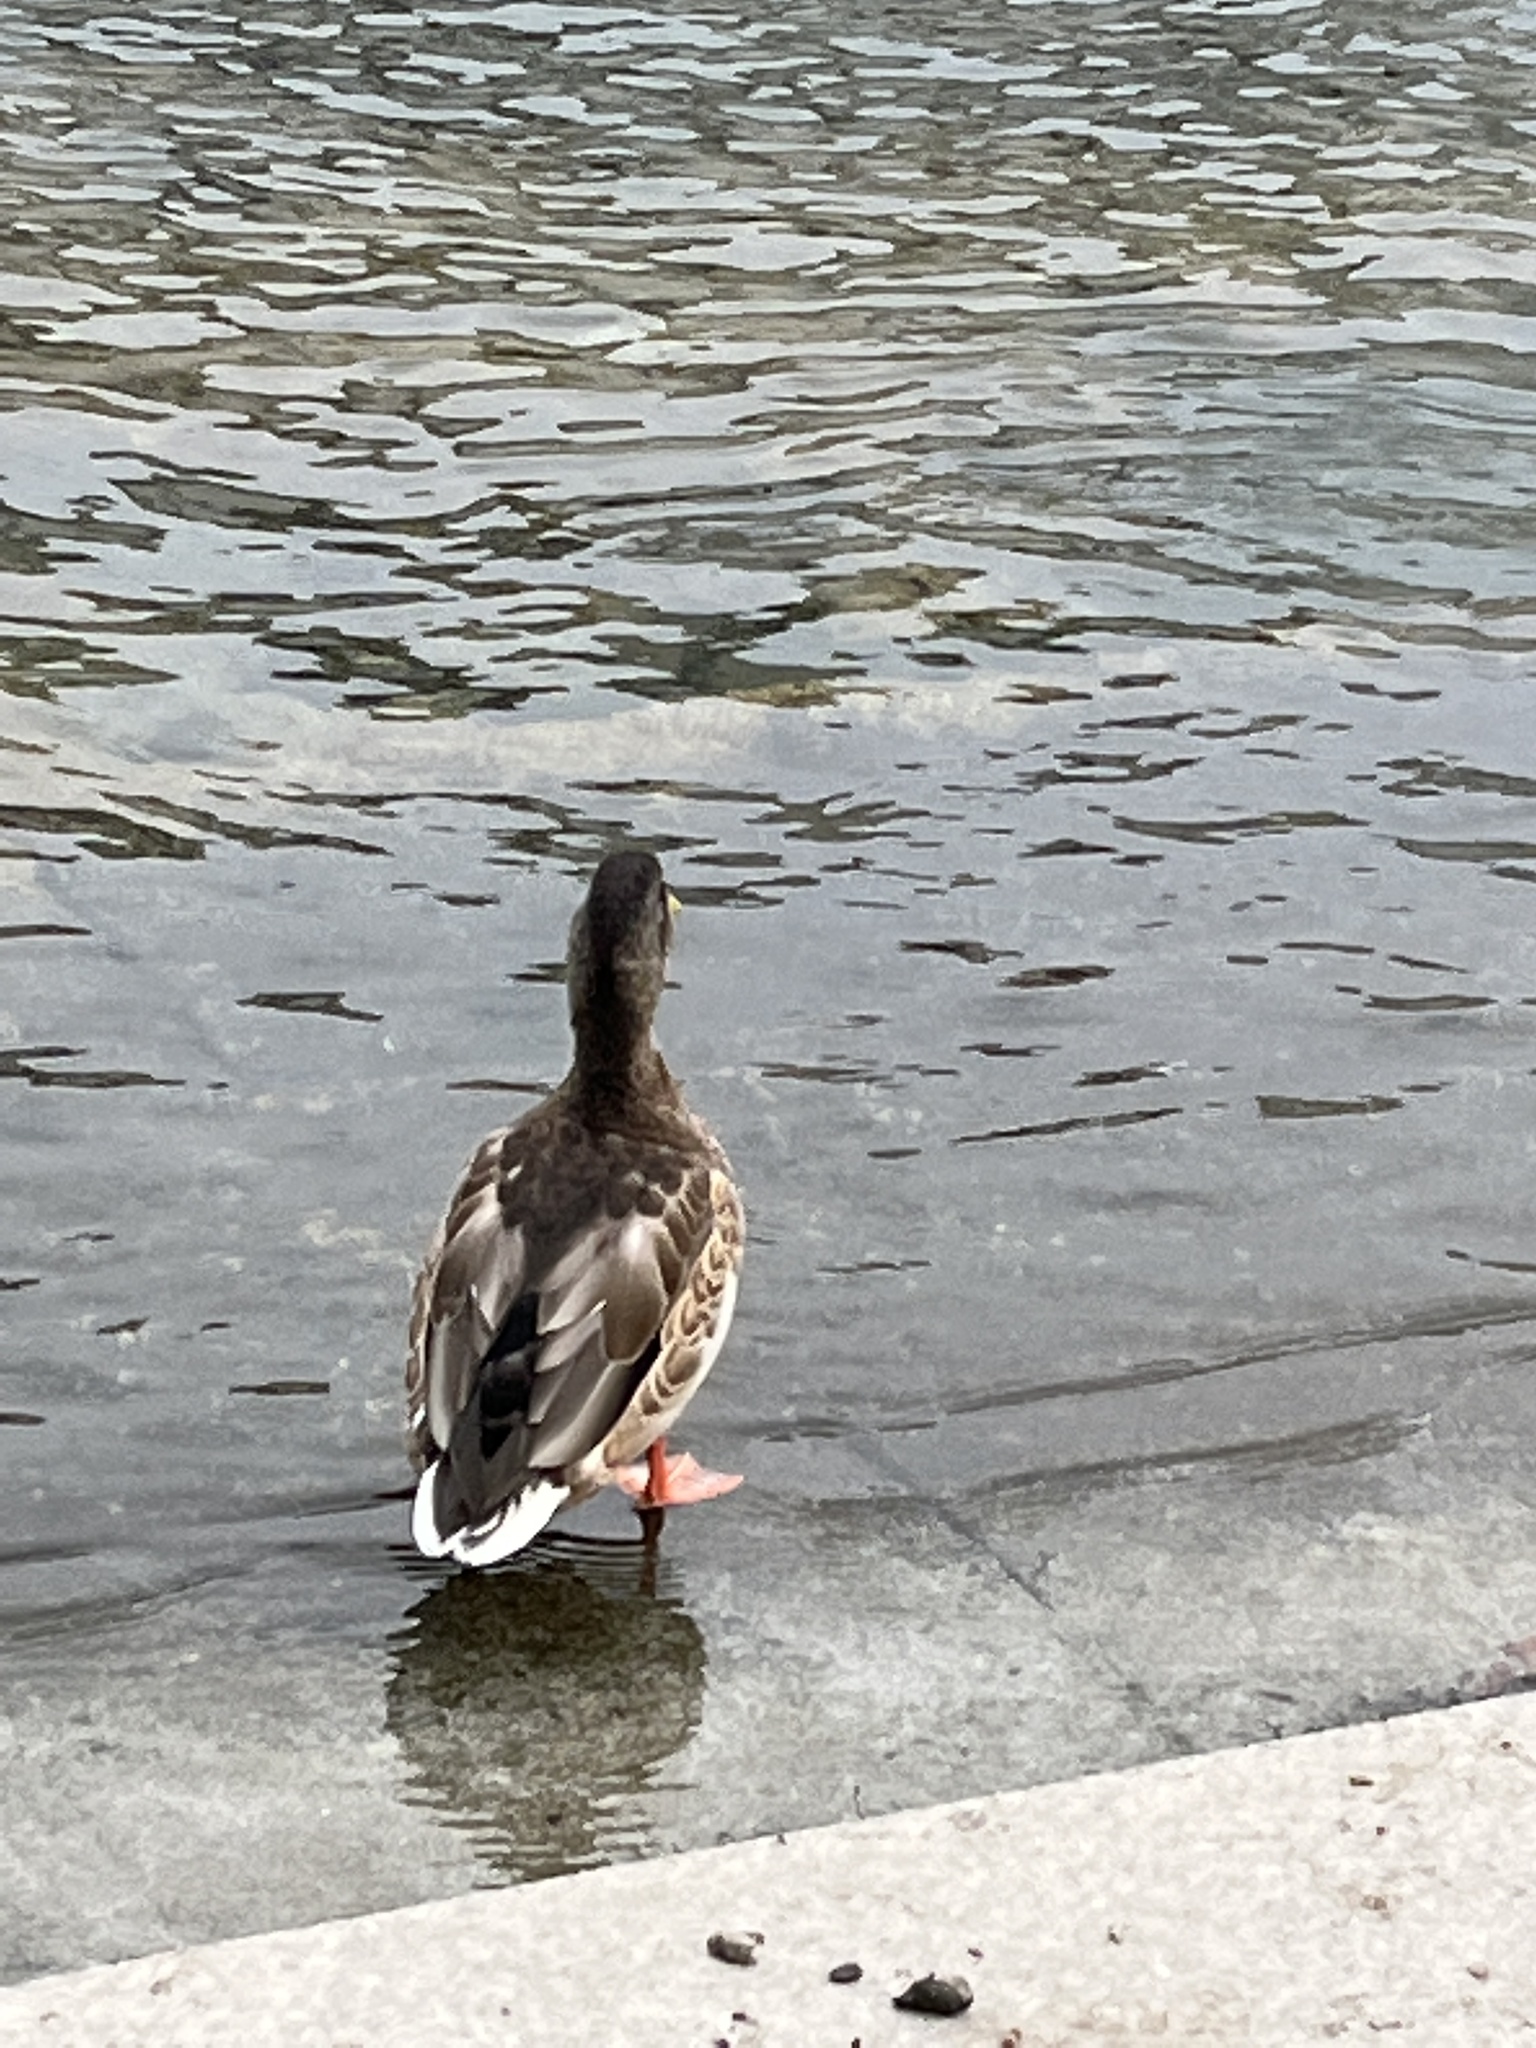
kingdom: Animalia
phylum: Chordata
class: Aves
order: Anseriformes
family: Anatidae
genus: Anas
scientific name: Anas platyrhynchos
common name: Mallard
